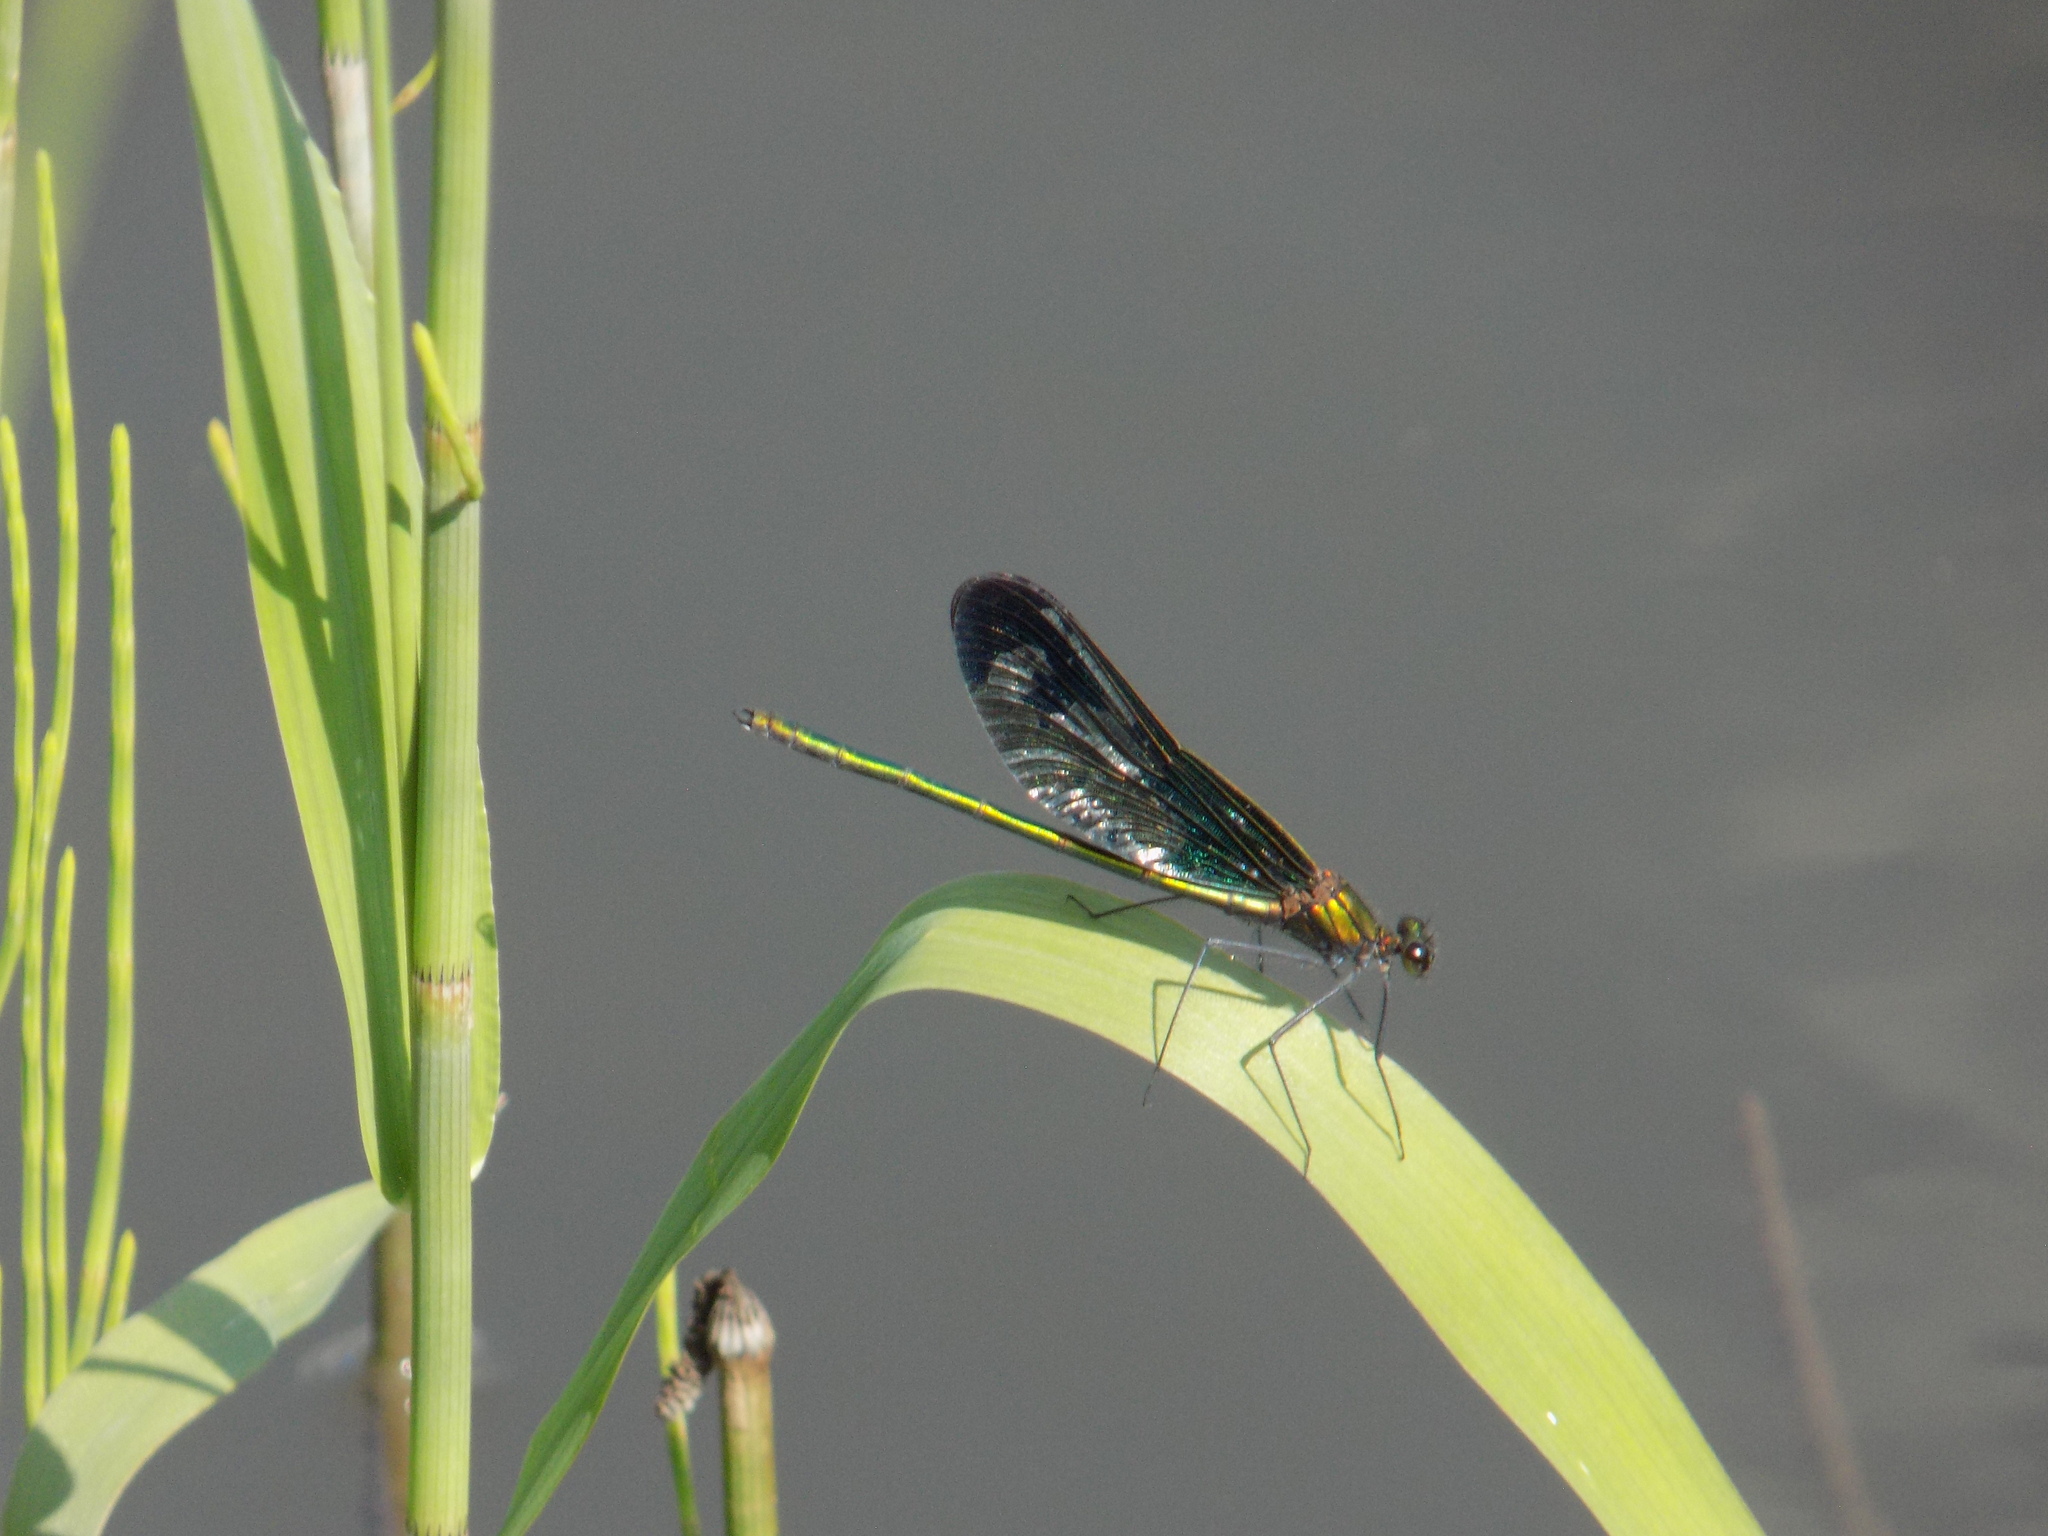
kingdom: Animalia
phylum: Arthropoda
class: Insecta
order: Odonata
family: Calopterygidae
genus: Calopteryx
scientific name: Calopteryx japonica
